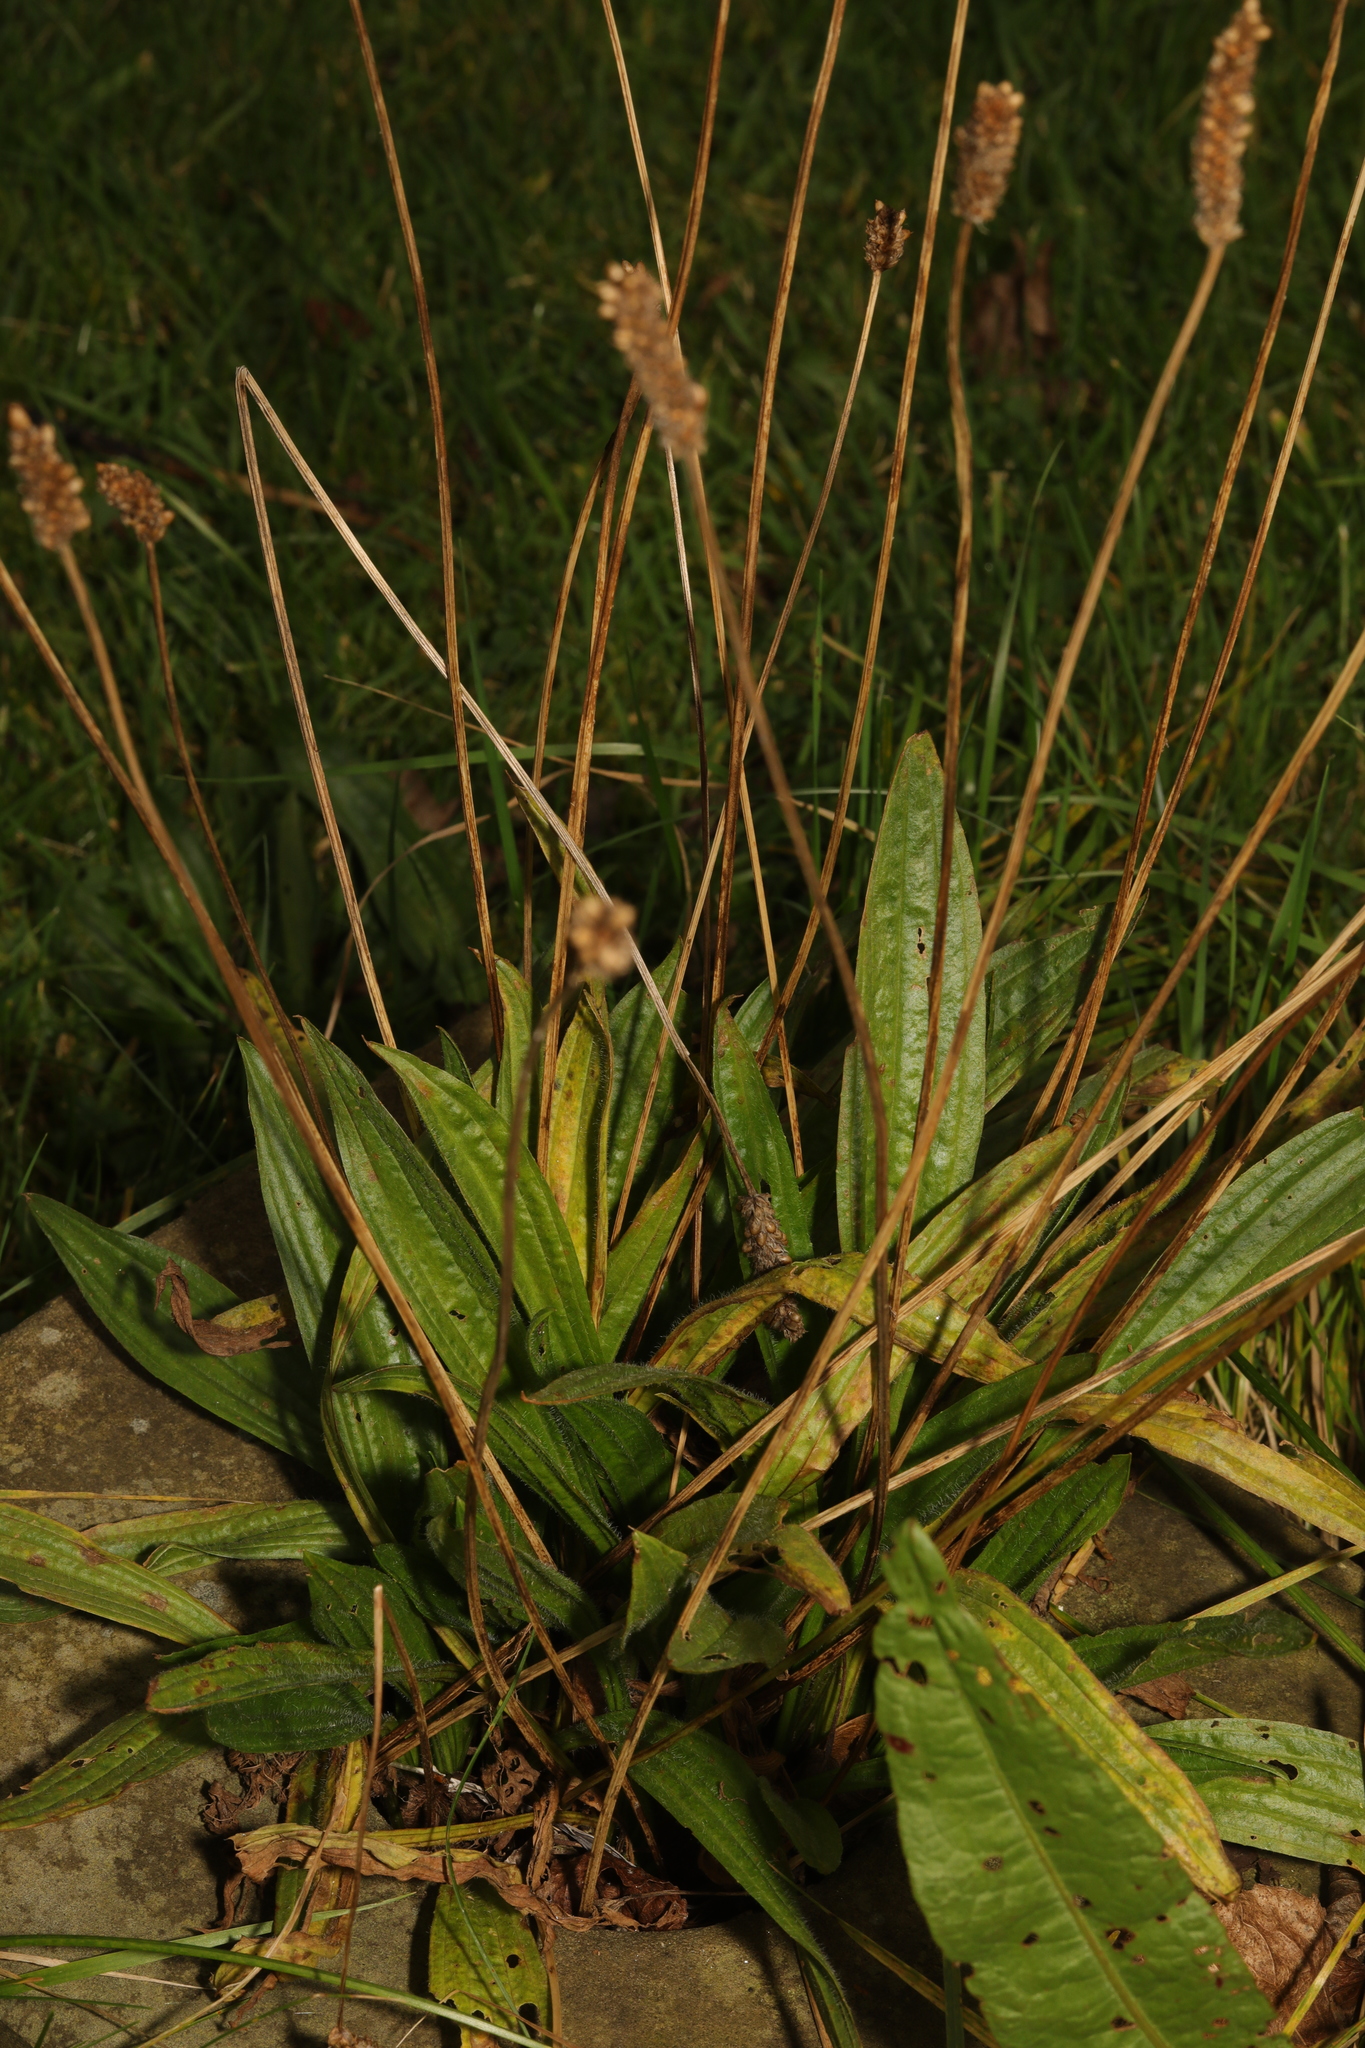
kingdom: Plantae
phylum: Tracheophyta
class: Magnoliopsida
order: Lamiales
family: Plantaginaceae
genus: Plantago
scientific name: Plantago lanceolata
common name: Ribwort plantain
